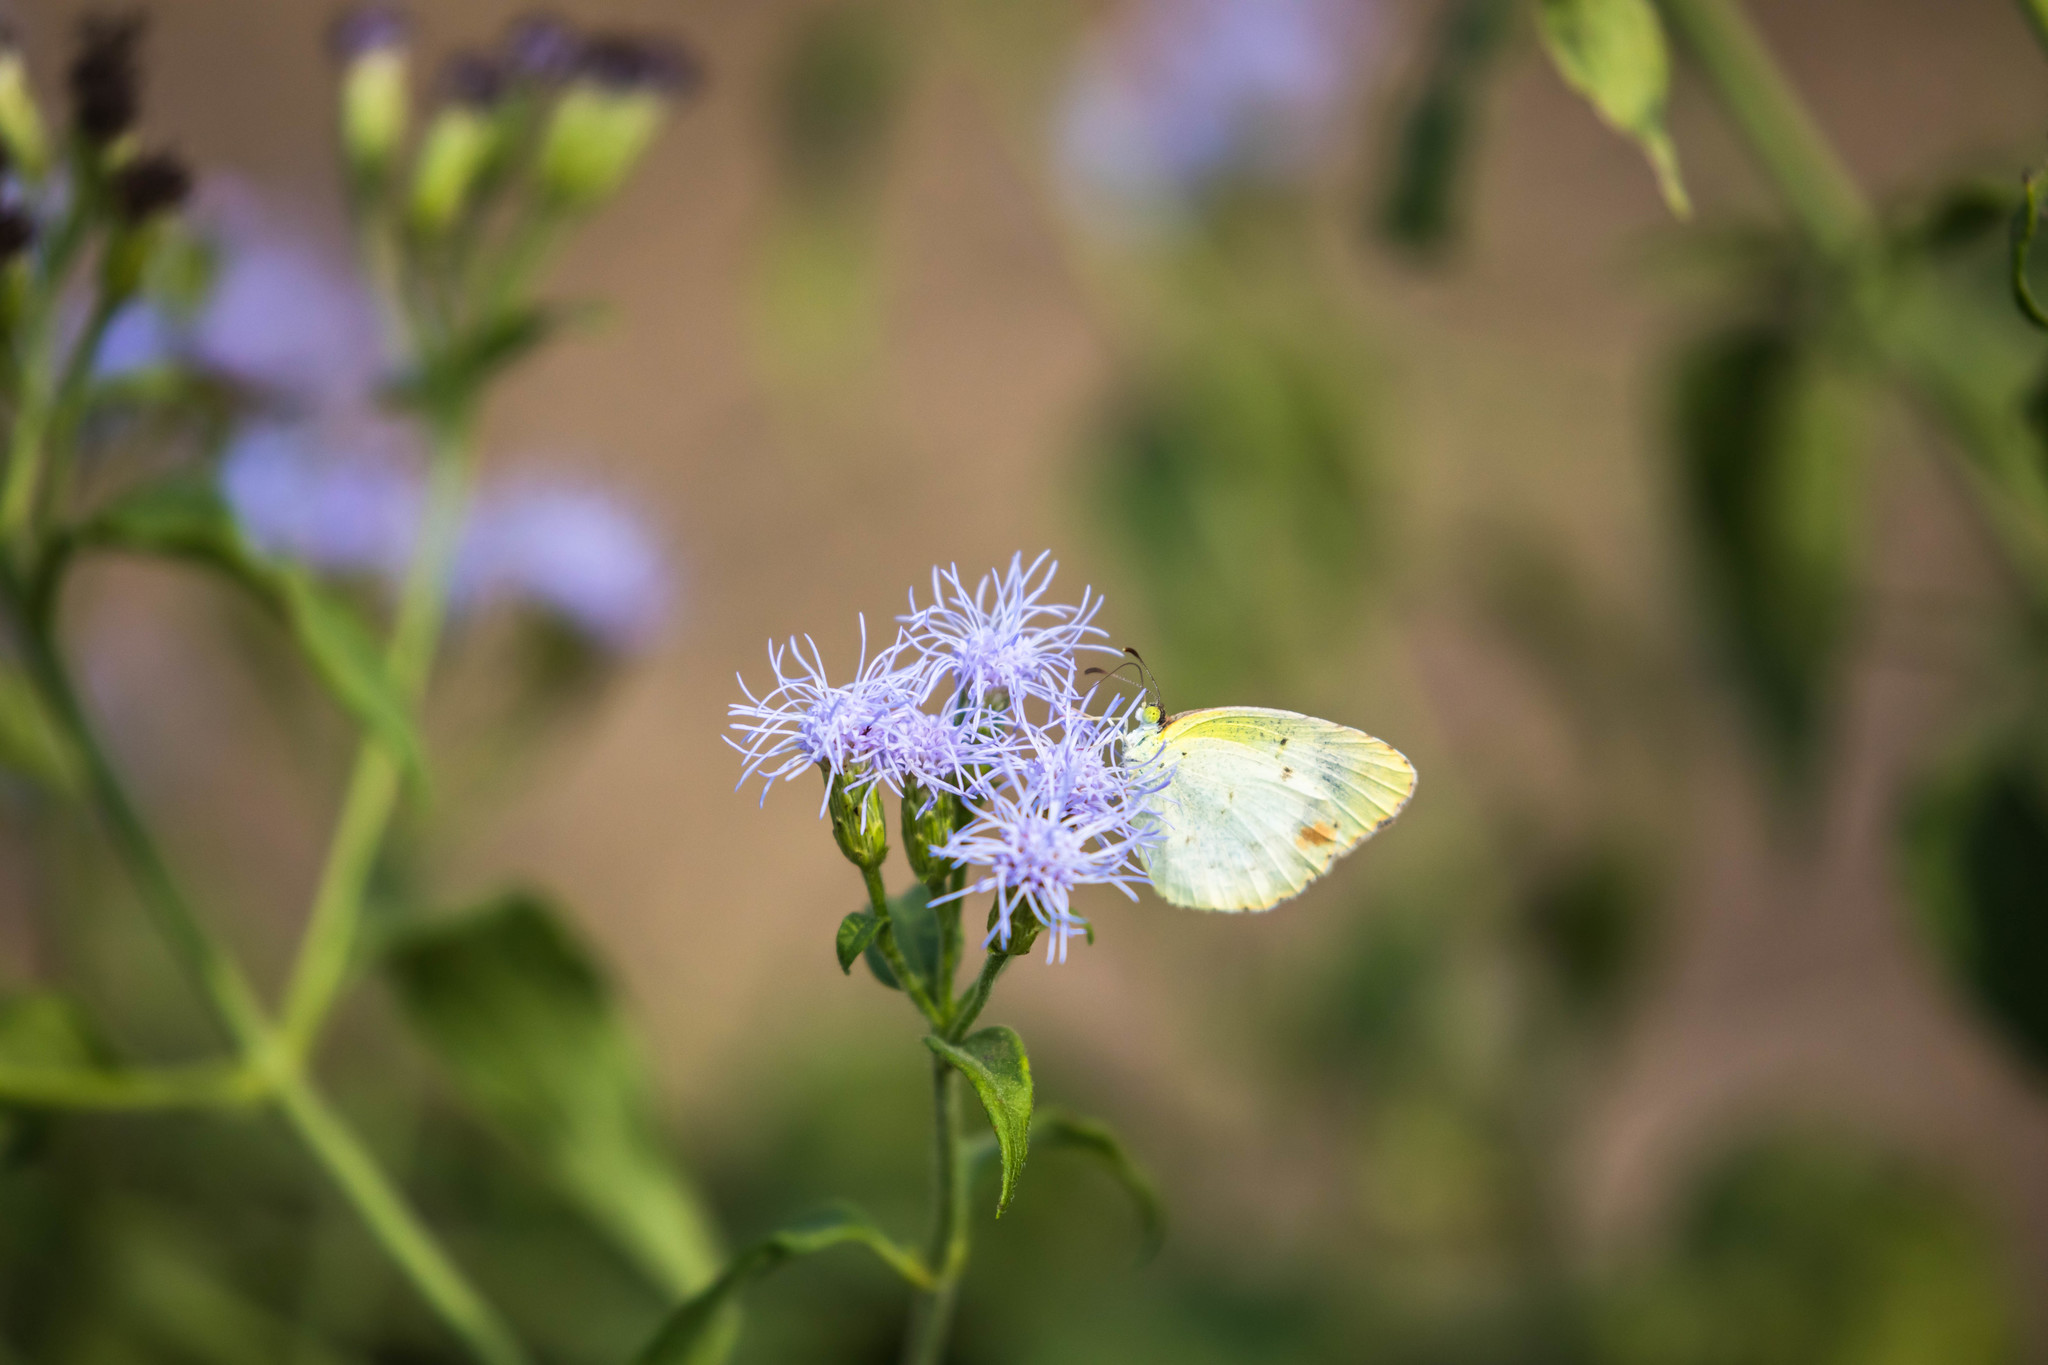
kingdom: Animalia
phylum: Arthropoda
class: Insecta
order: Lepidoptera
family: Pieridae
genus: Pyrisitia
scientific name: Pyrisitia lisa
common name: Little yellow
